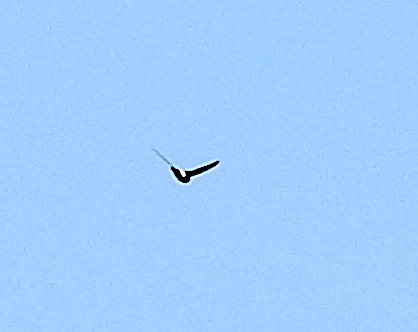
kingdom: Animalia
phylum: Chordata
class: Aves
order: Apodiformes
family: Apodidae
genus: Apus
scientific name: Apus affinis
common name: Little swift
